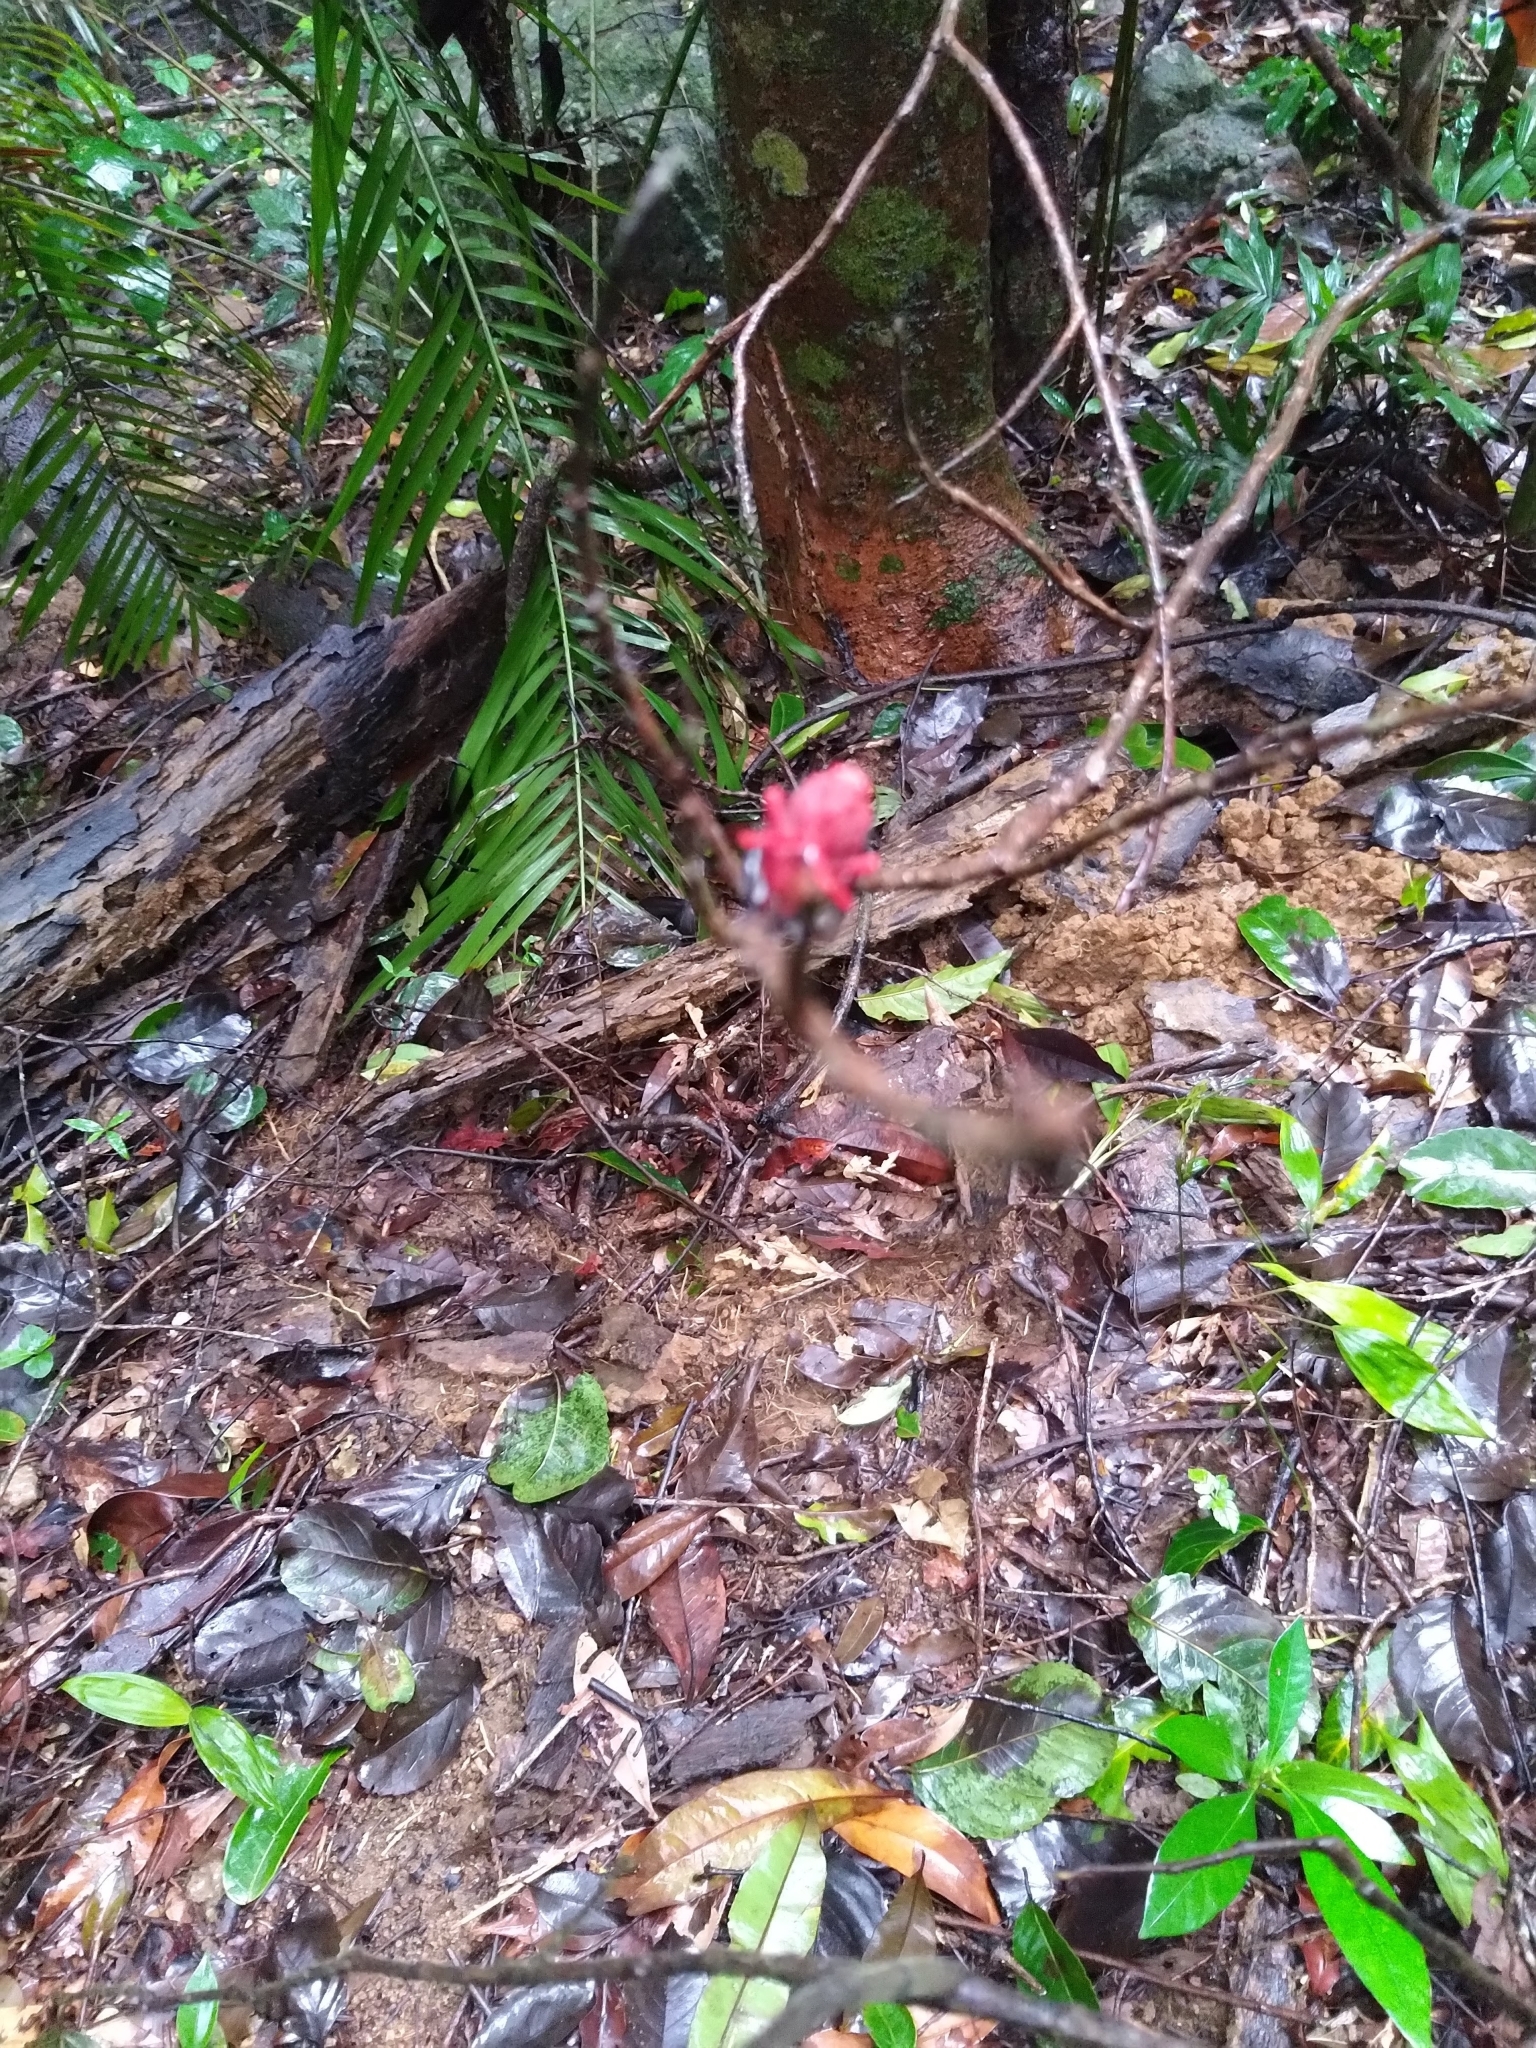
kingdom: Animalia
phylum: Arthropoda
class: Insecta
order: Hemiptera
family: Fulgoridae
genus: Kalidasa
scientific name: Kalidasa lanata
